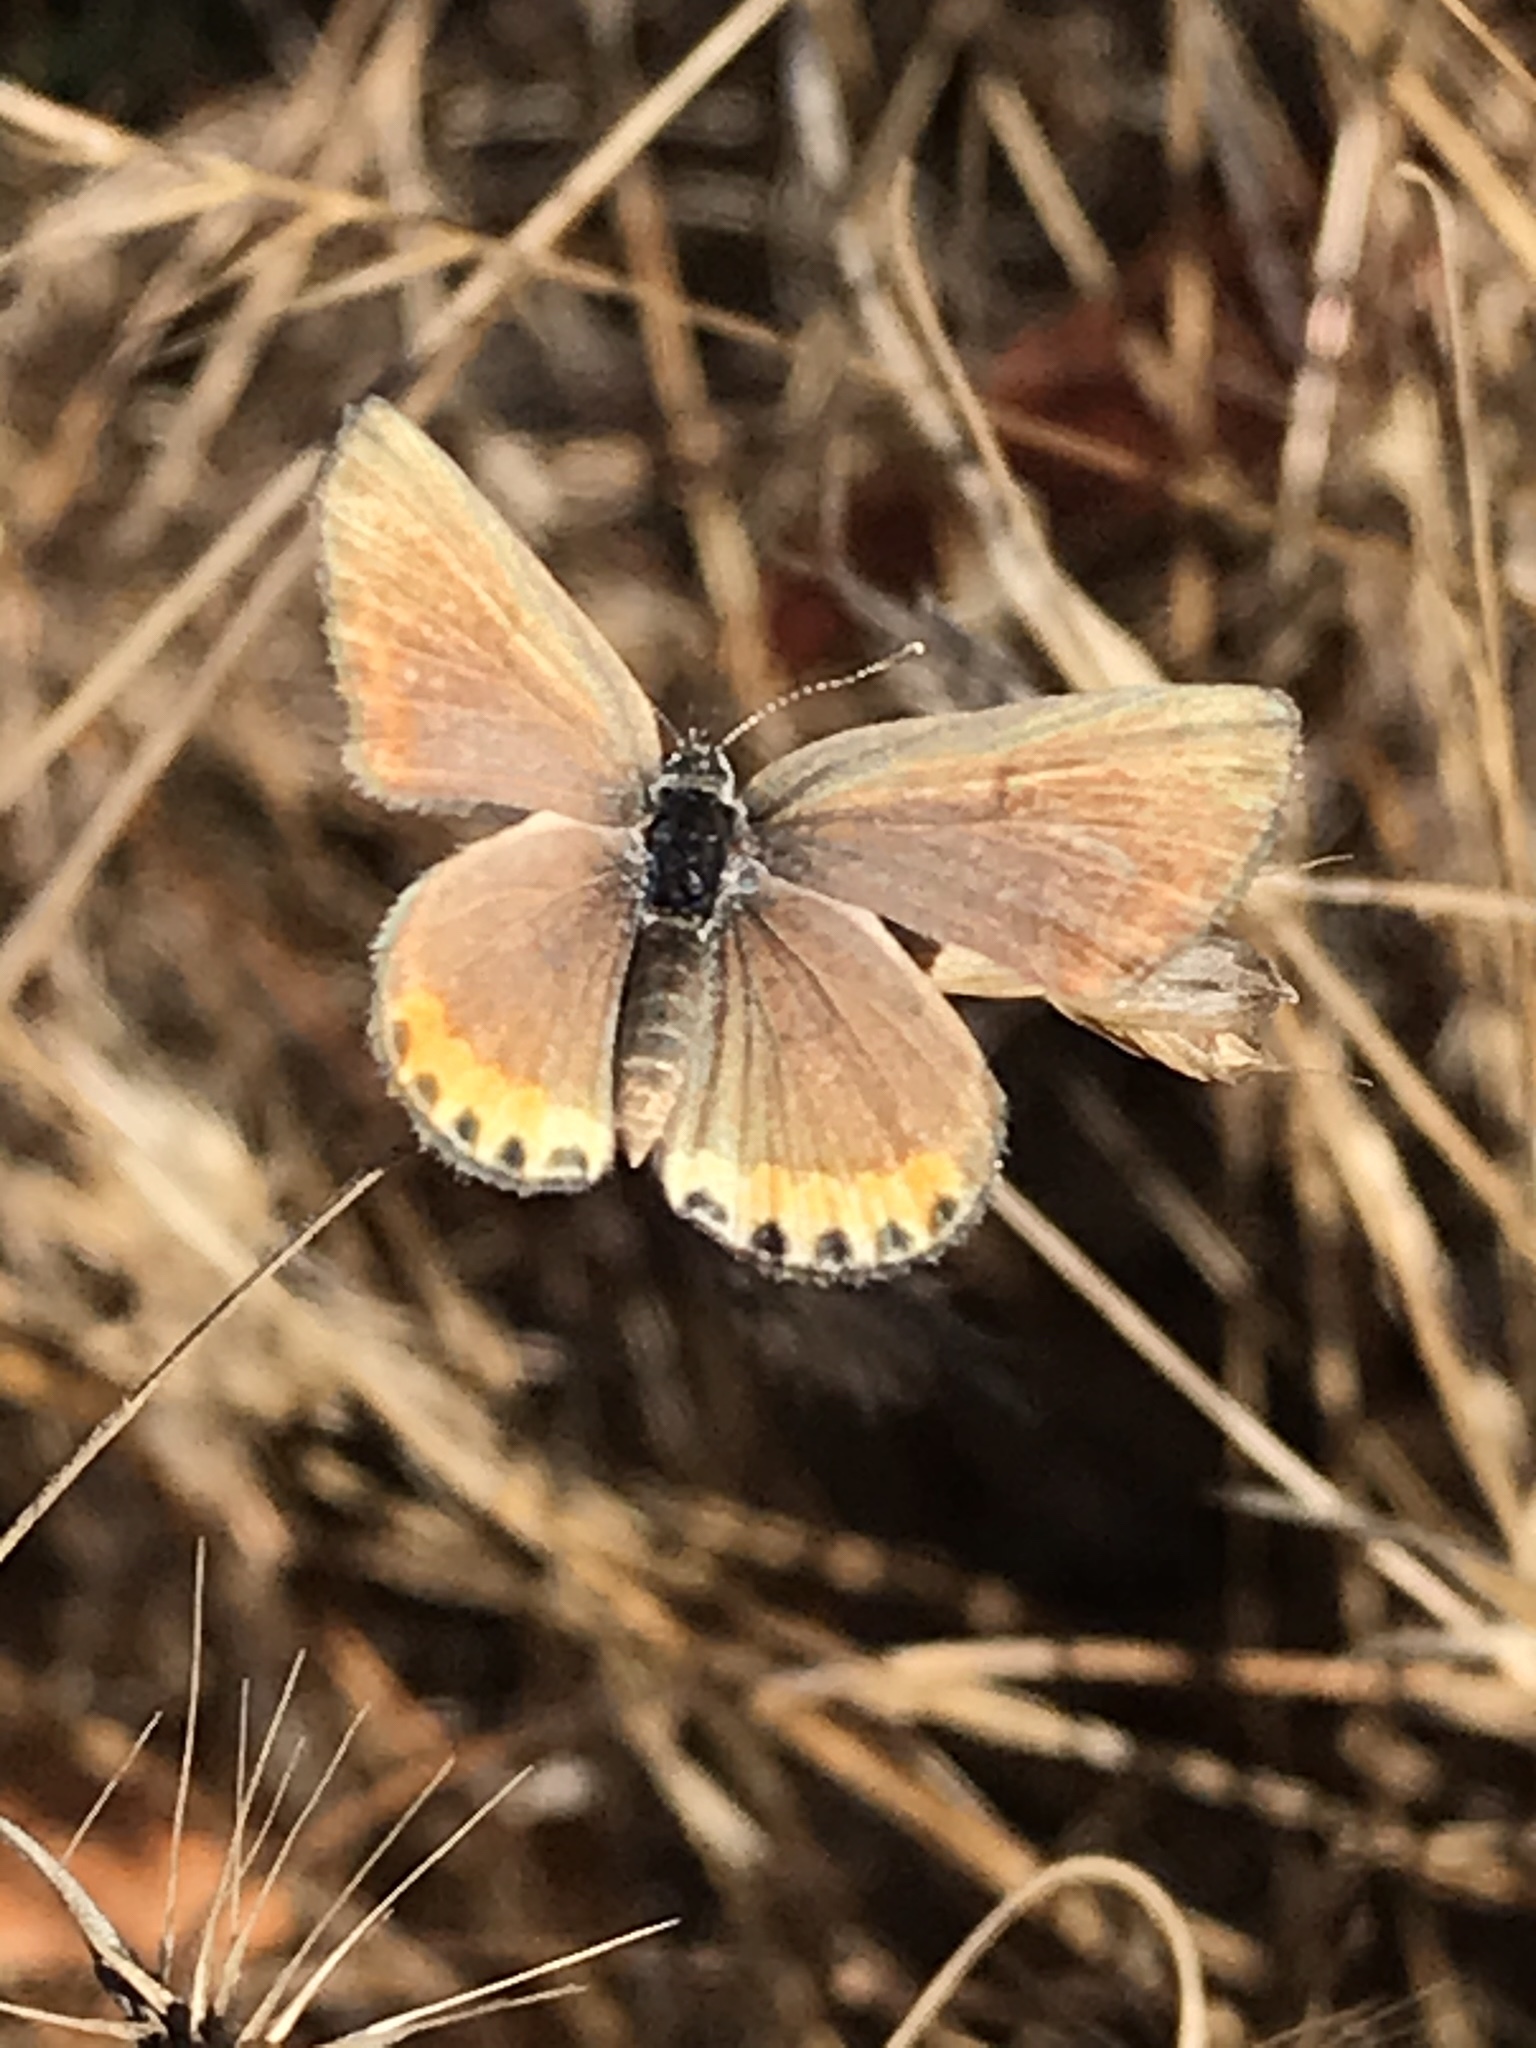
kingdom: Animalia
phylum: Arthropoda
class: Insecta
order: Lepidoptera
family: Lycaenidae
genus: Icaricia
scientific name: Icaricia acmon
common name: Acmon blue
